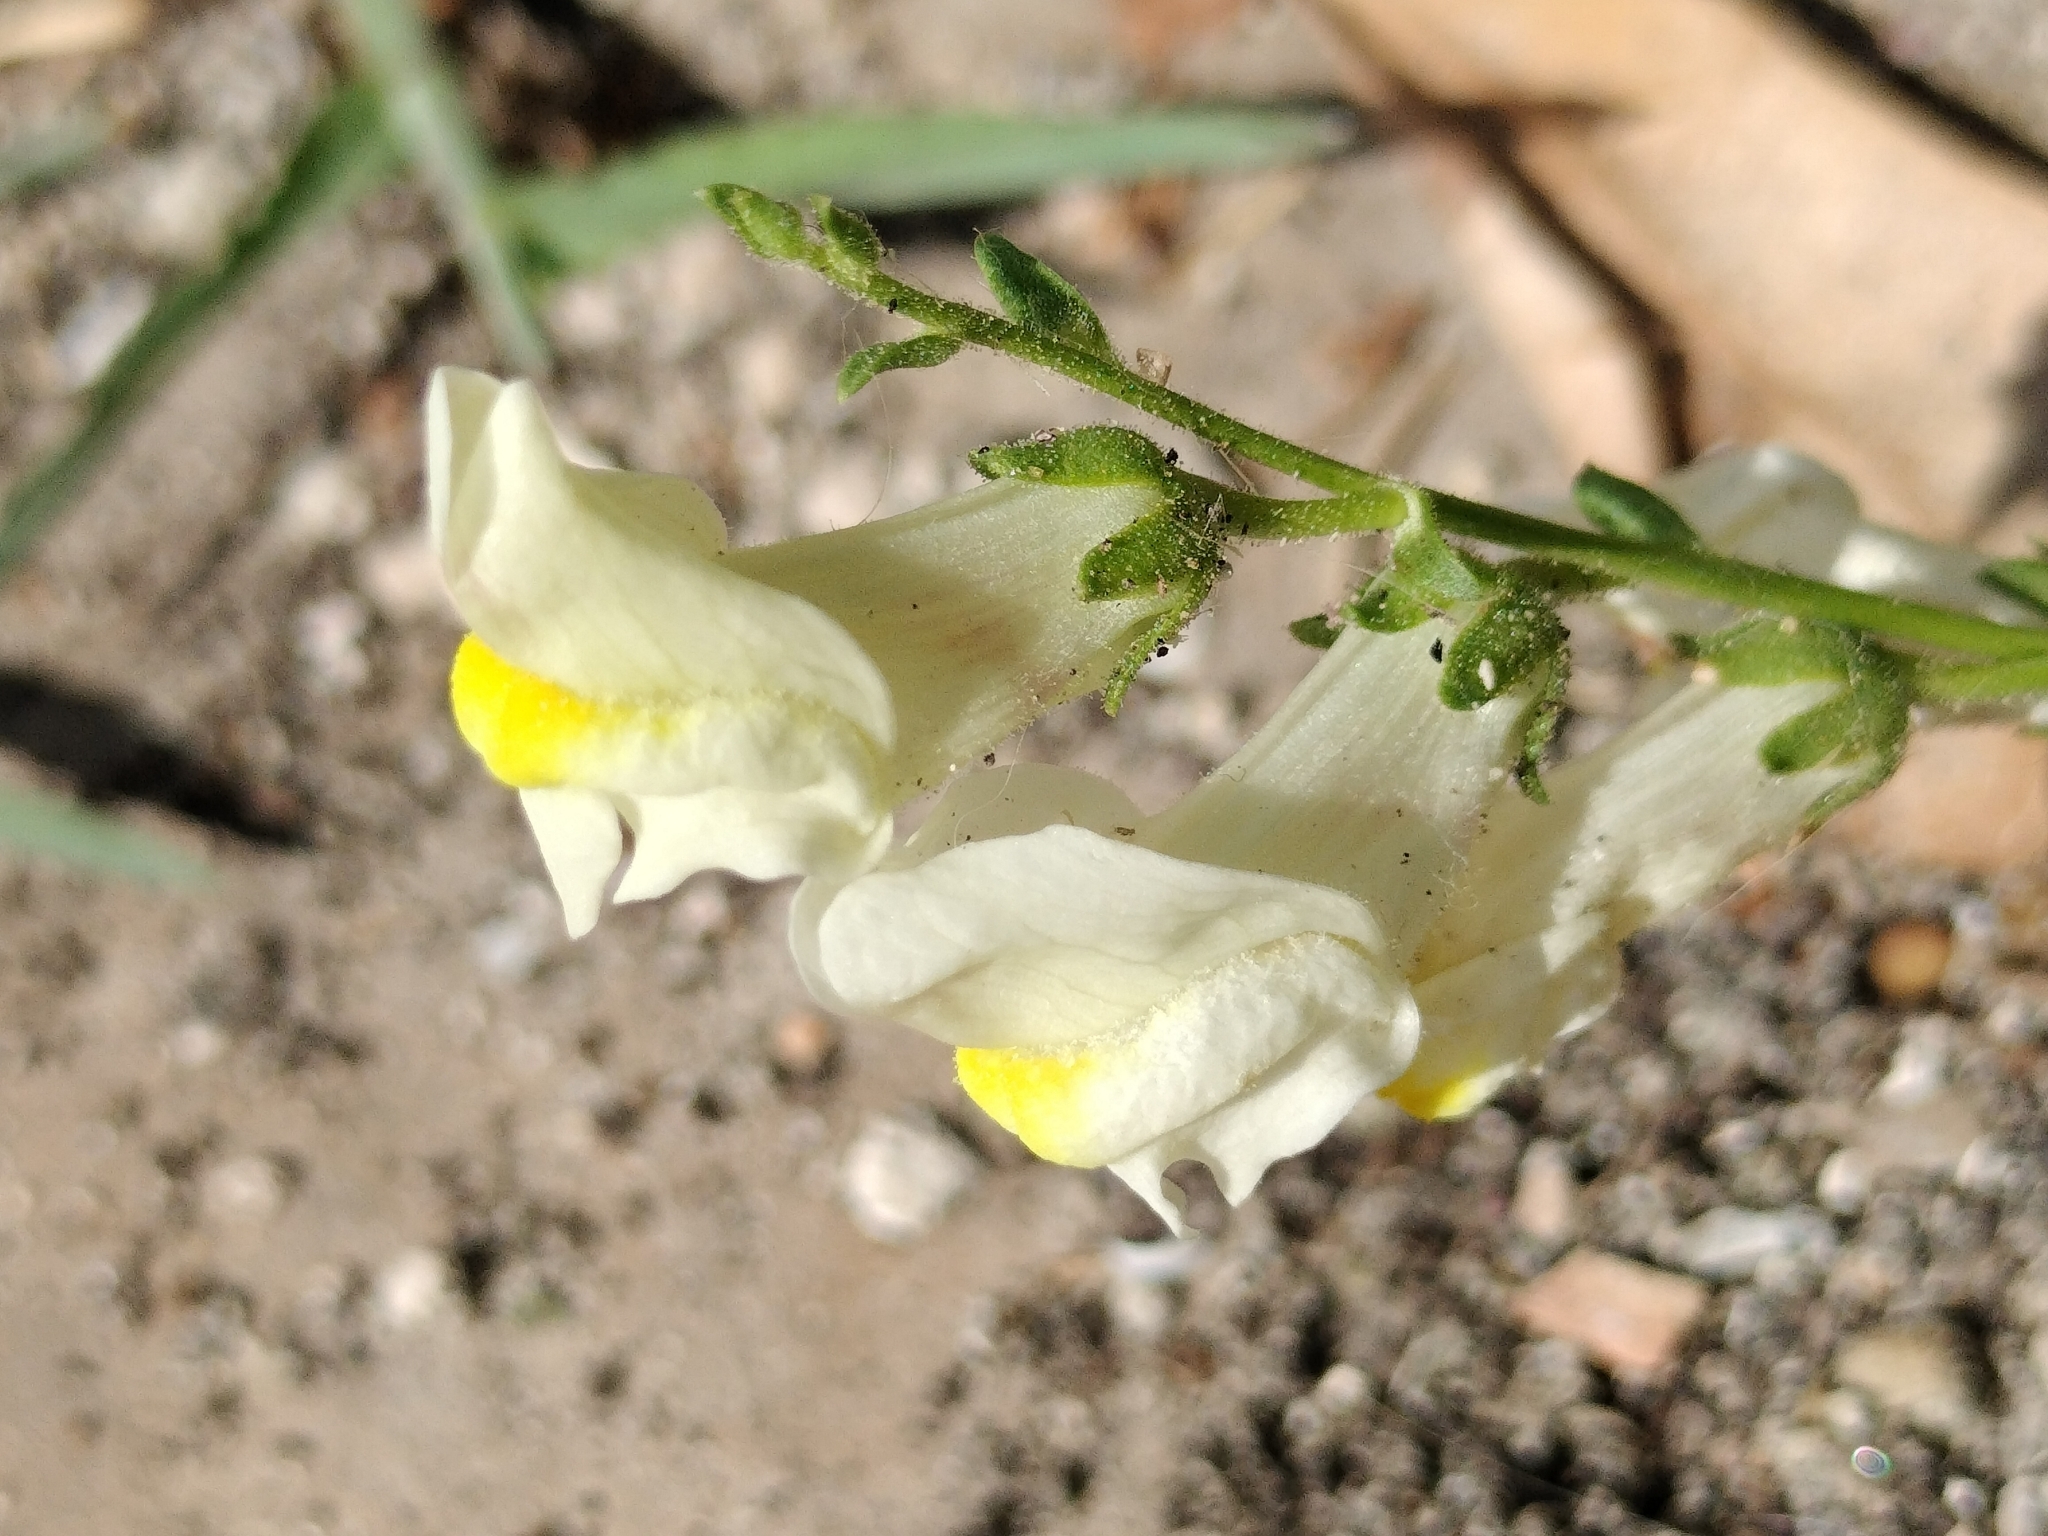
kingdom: Plantae
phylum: Tracheophyta
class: Magnoliopsida
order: Lamiales
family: Plantaginaceae
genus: Antirrhinum
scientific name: Antirrhinum siculum
